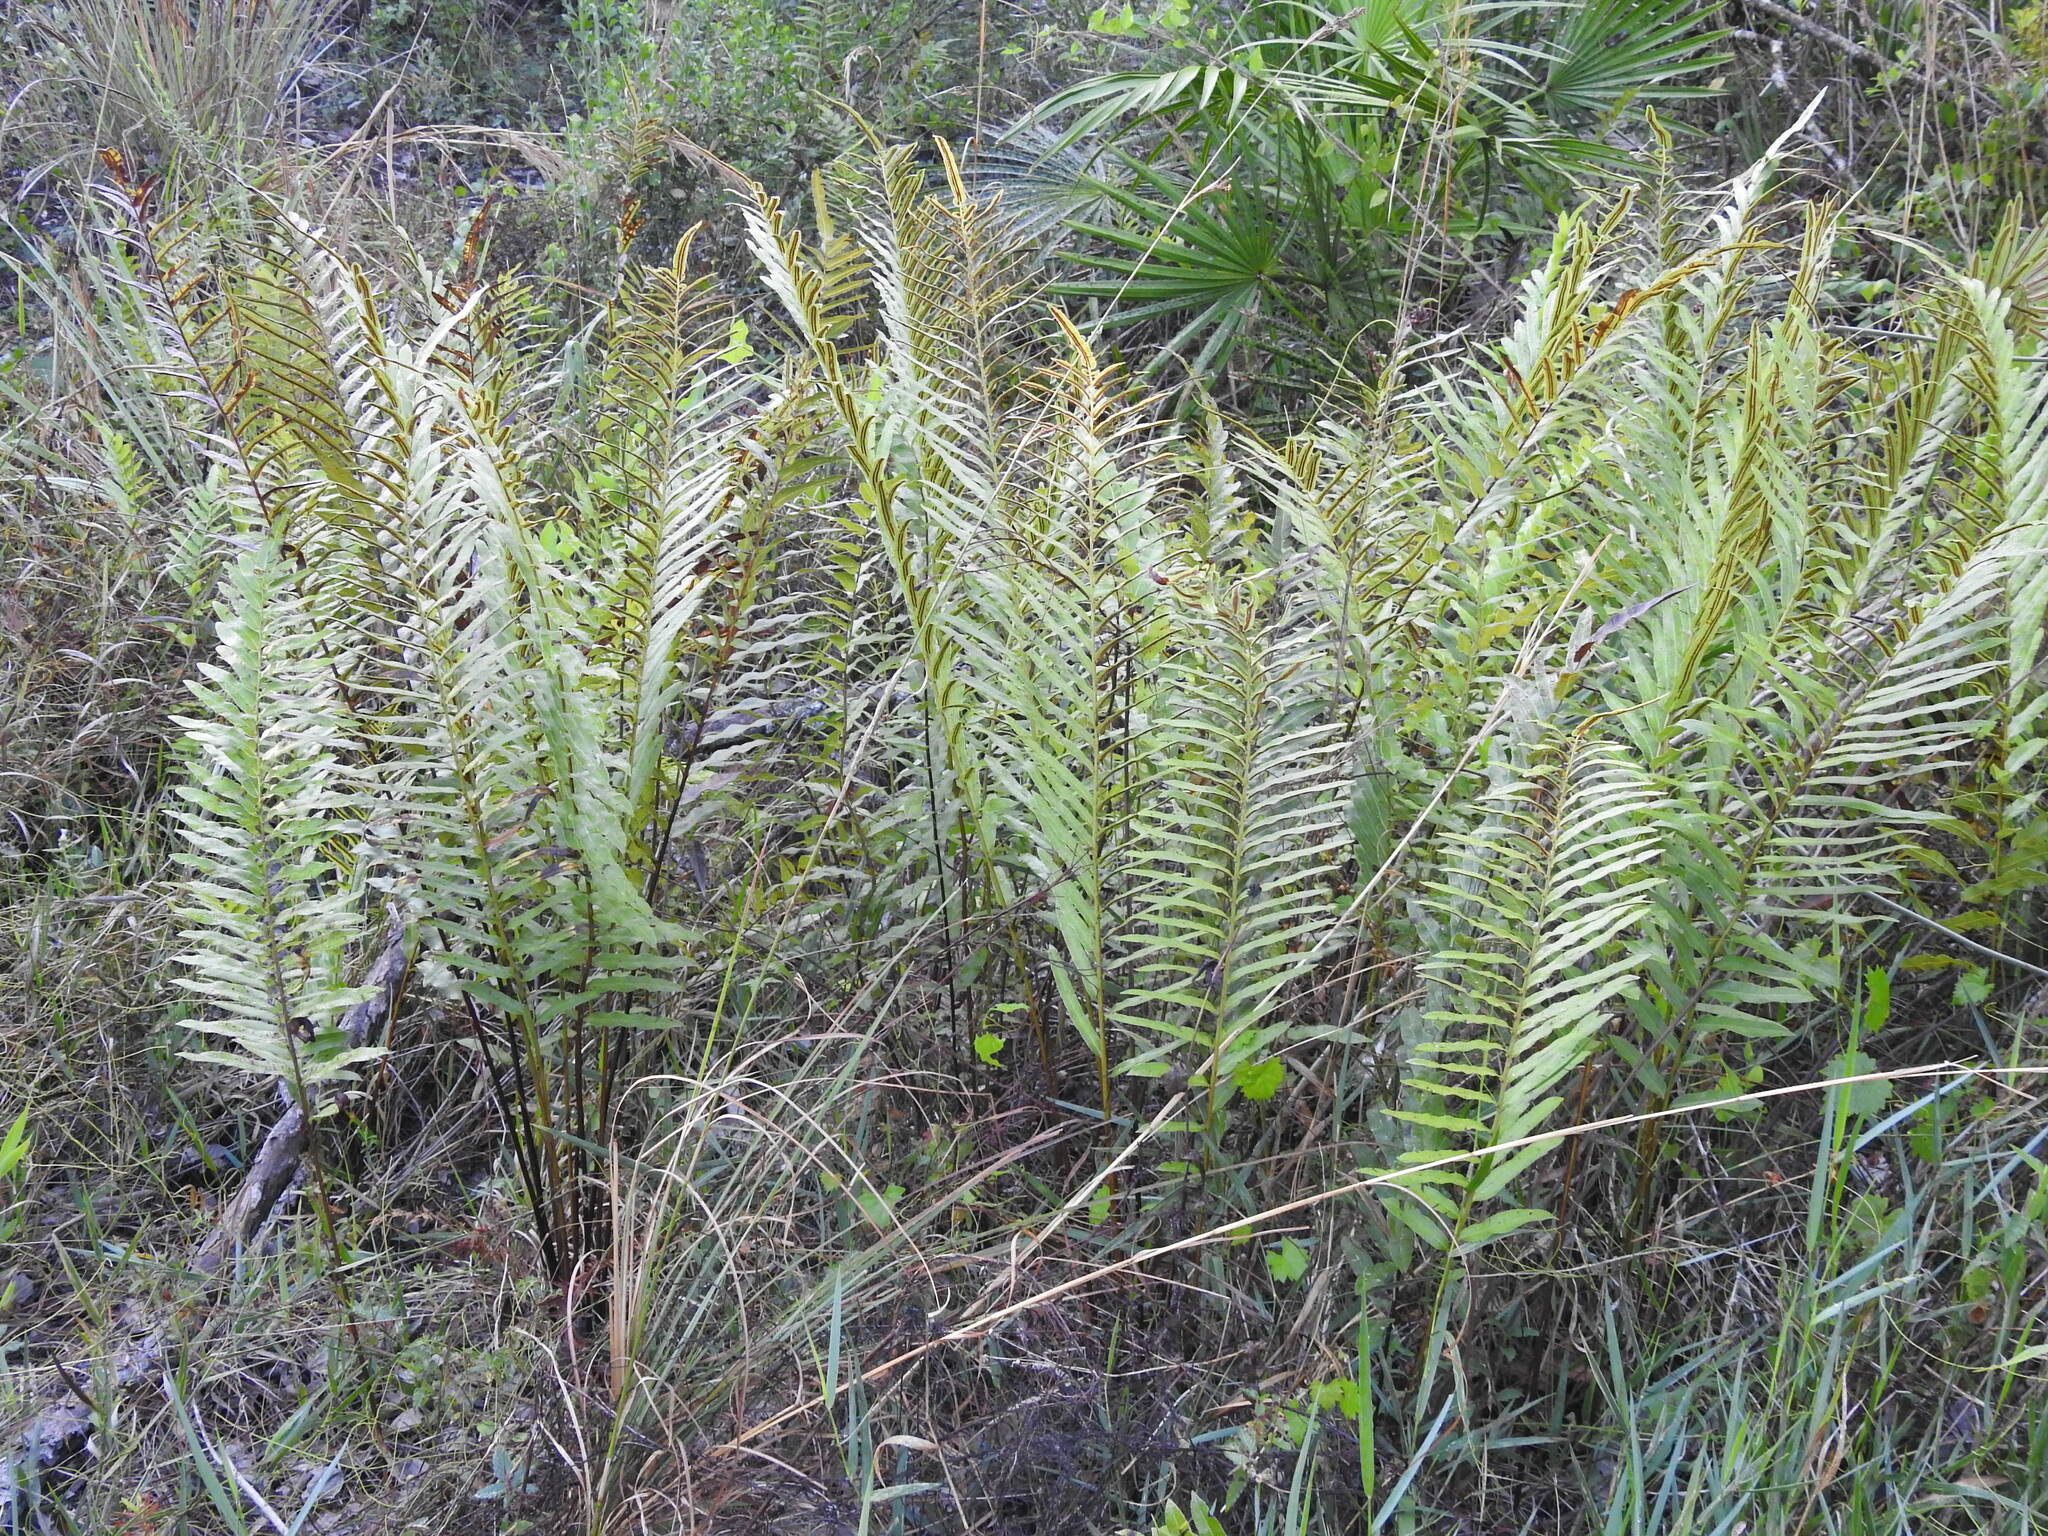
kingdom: Plantae
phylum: Tracheophyta
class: Polypodiopsida
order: Polypodiales
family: Blechnaceae
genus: Telmatoblechnum
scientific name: Telmatoblechnum serrulatum
